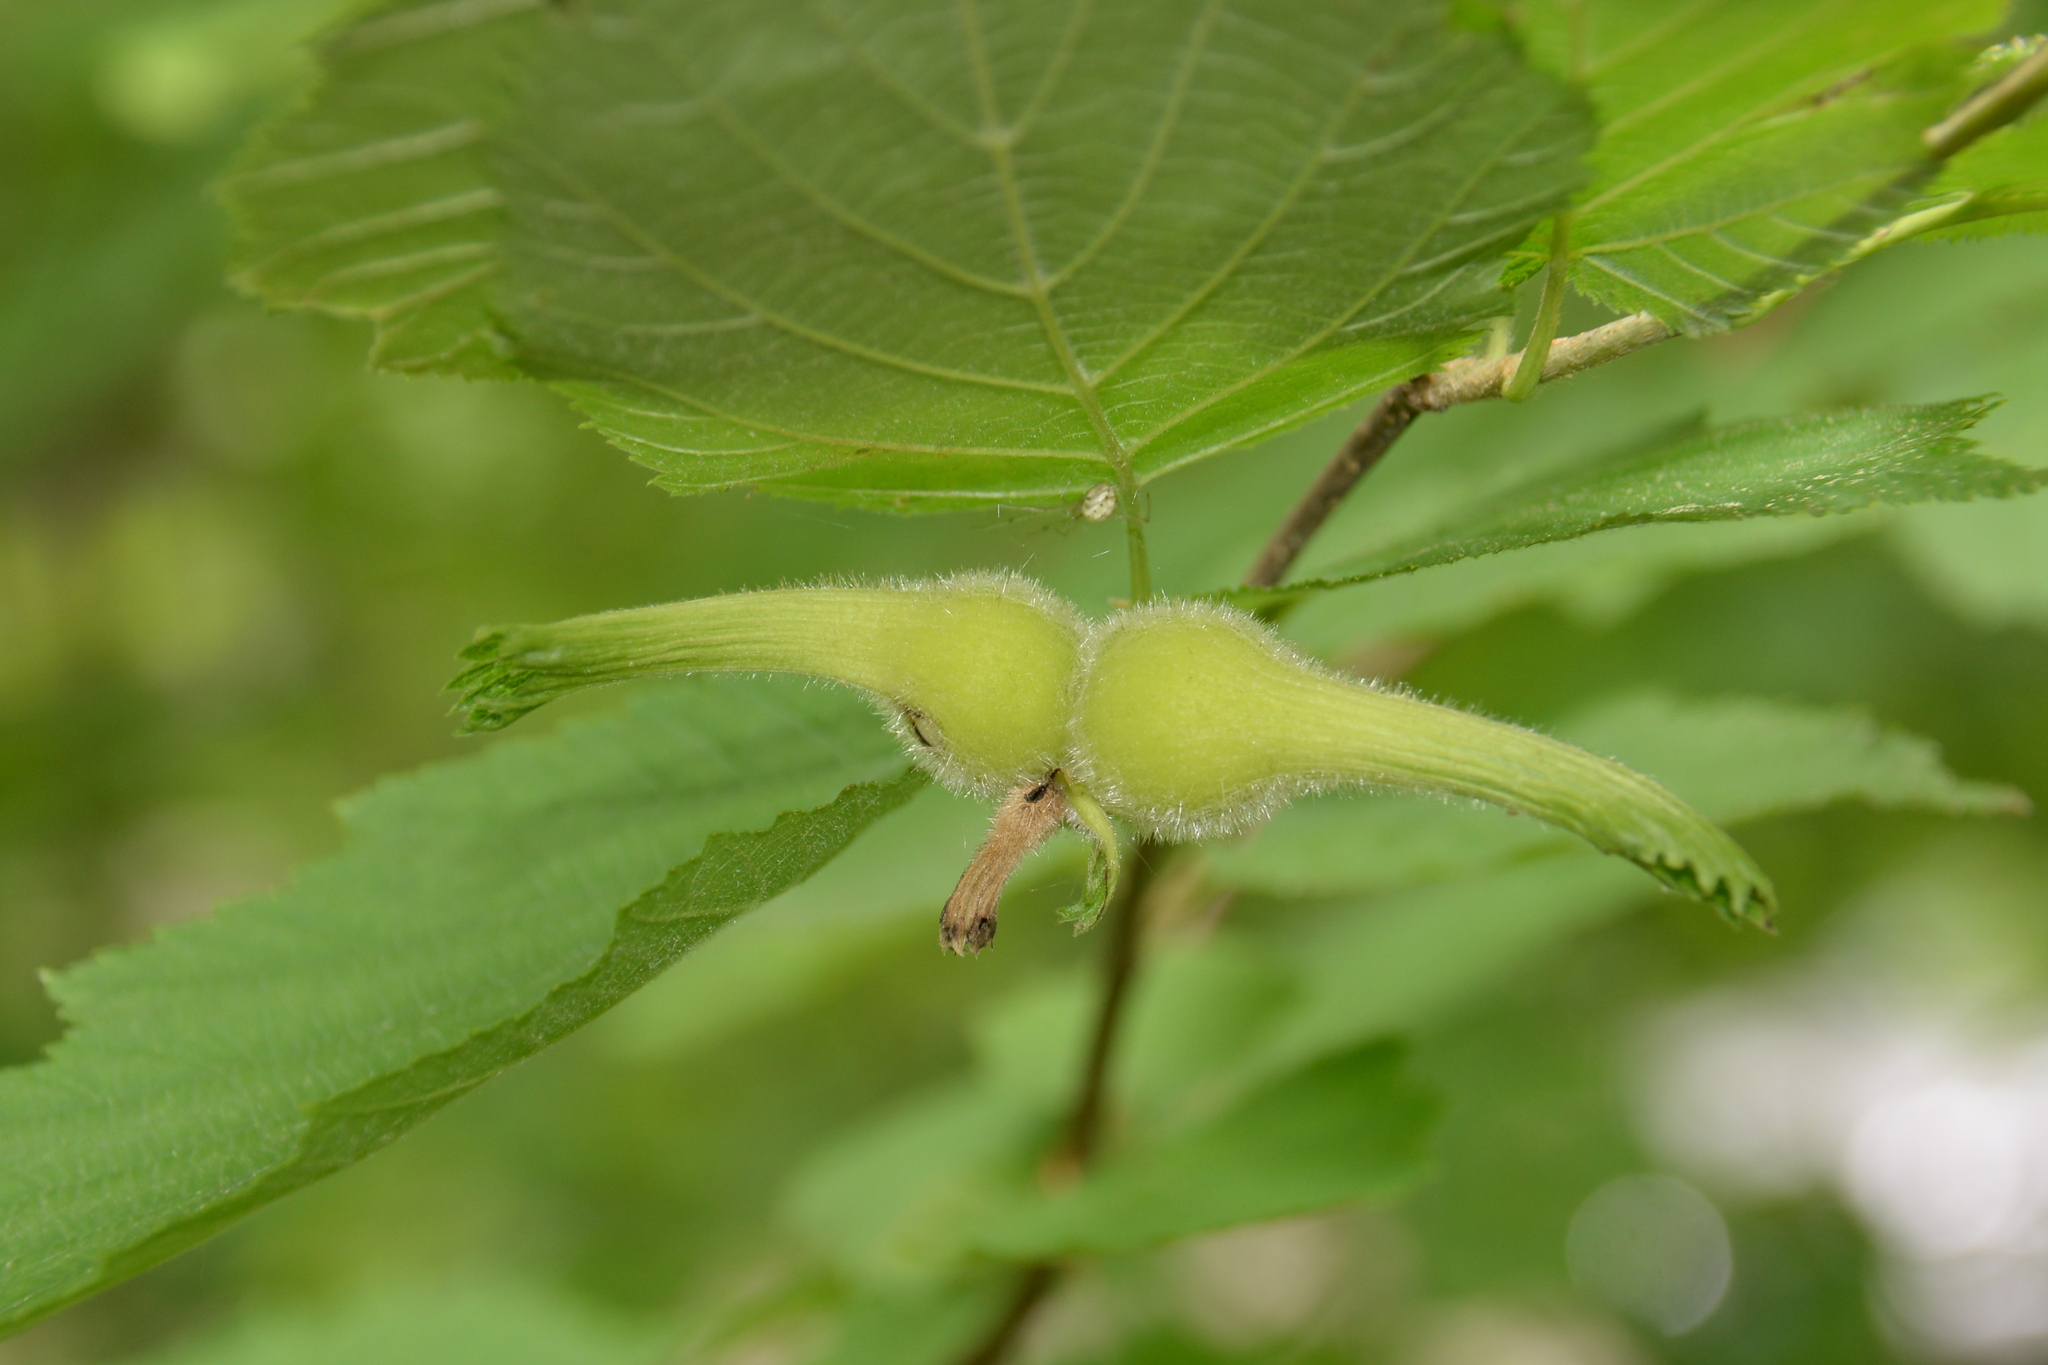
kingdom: Plantae
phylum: Tracheophyta
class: Magnoliopsida
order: Fagales
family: Betulaceae
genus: Corylus
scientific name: Corylus cornuta
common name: Beaked hazel
